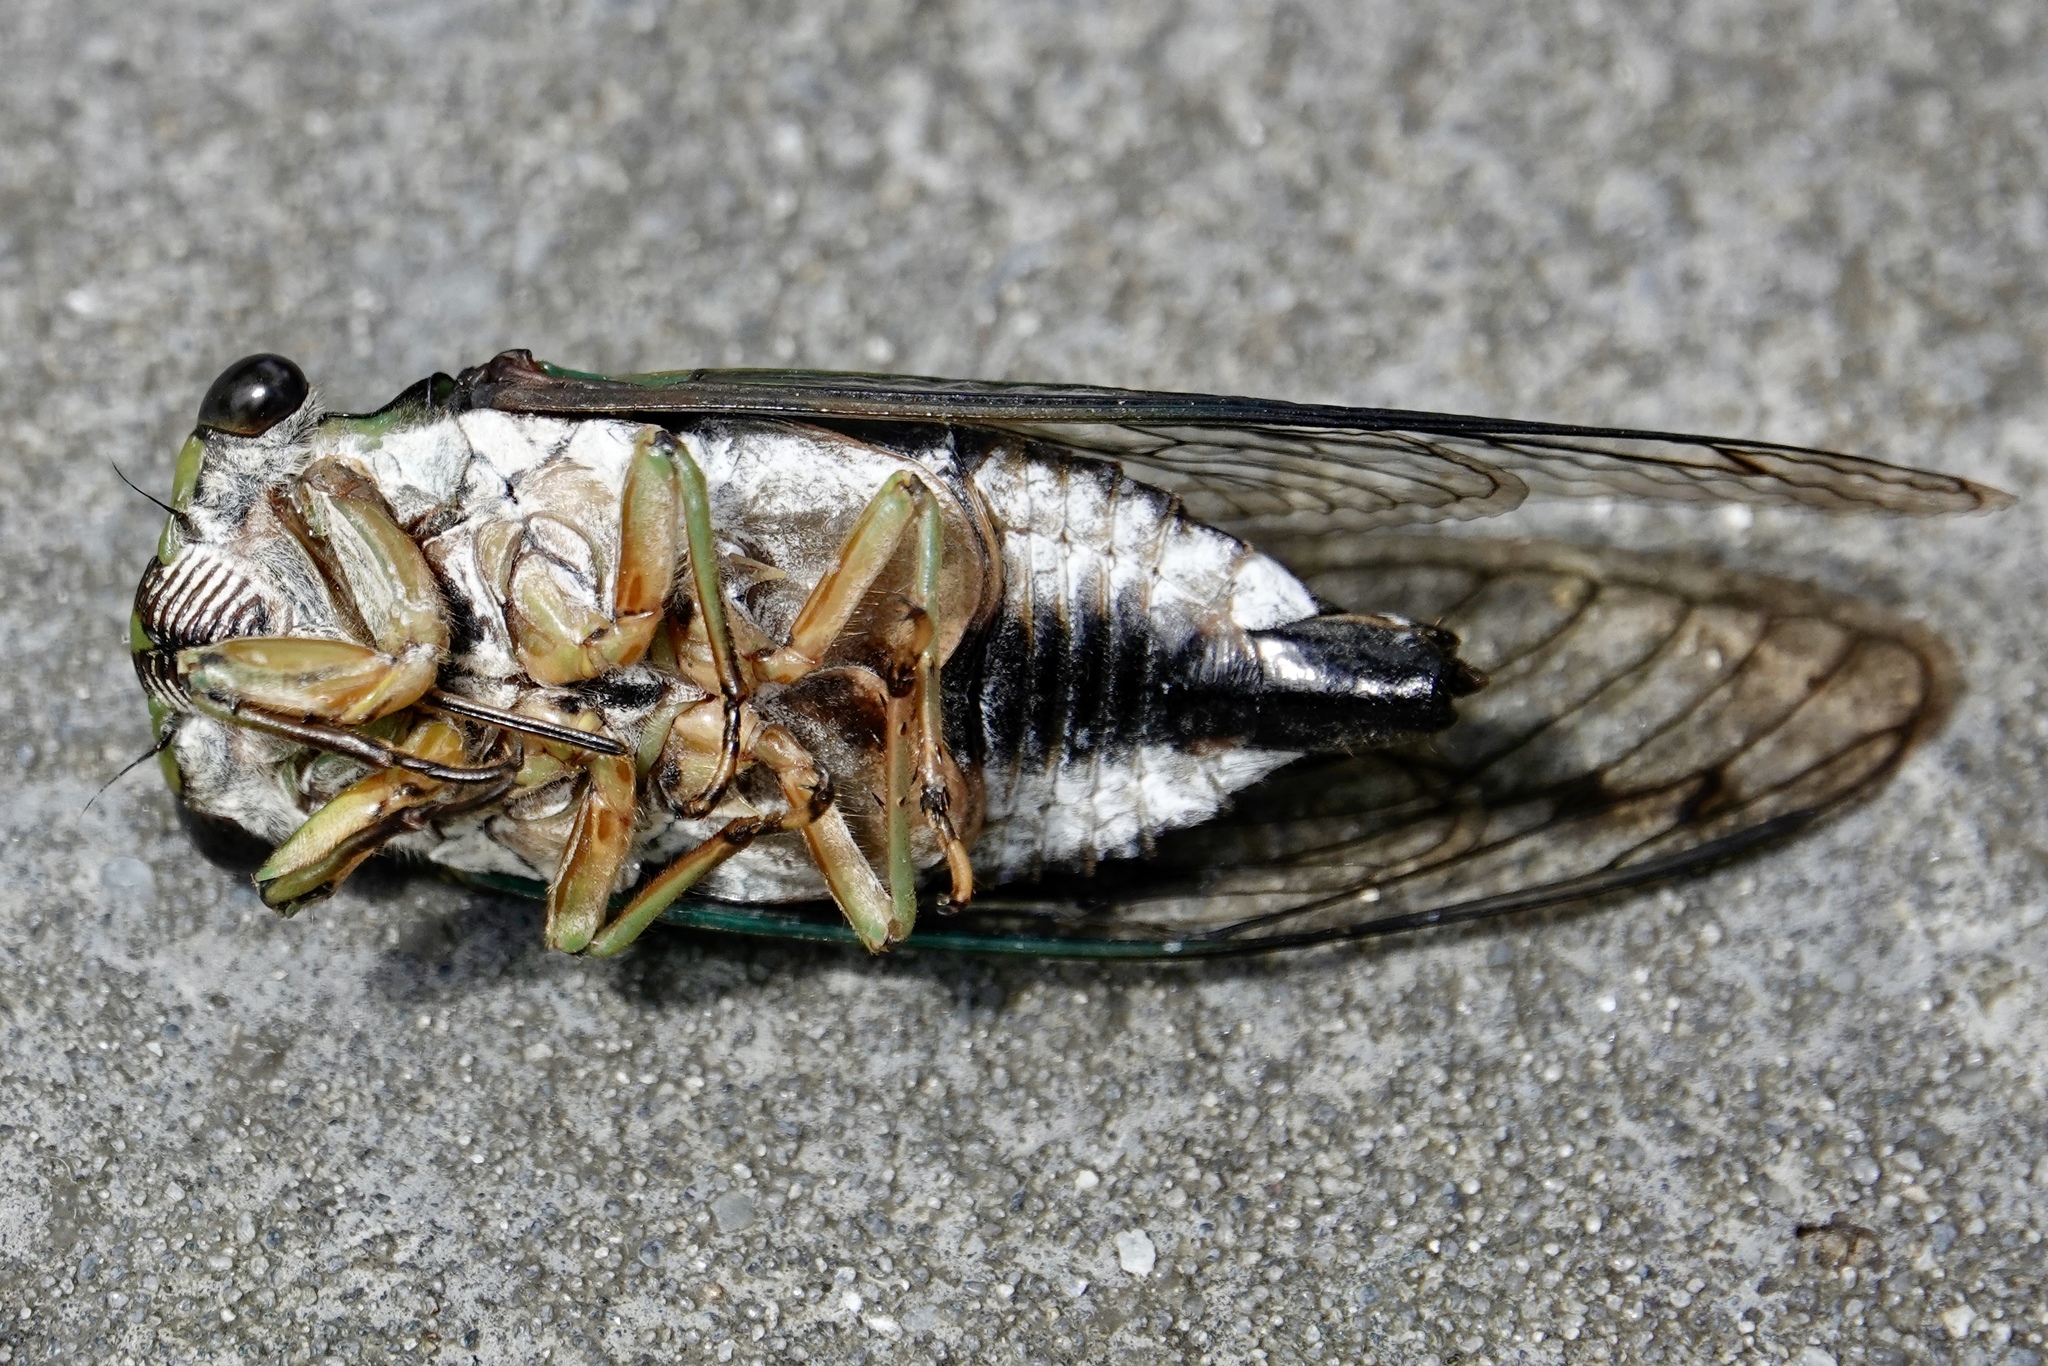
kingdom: Animalia
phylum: Arthropoda
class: Insecta
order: Hemiptera
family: Cicadidae
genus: Neotibicen
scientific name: Neotibicen robinsonianus
